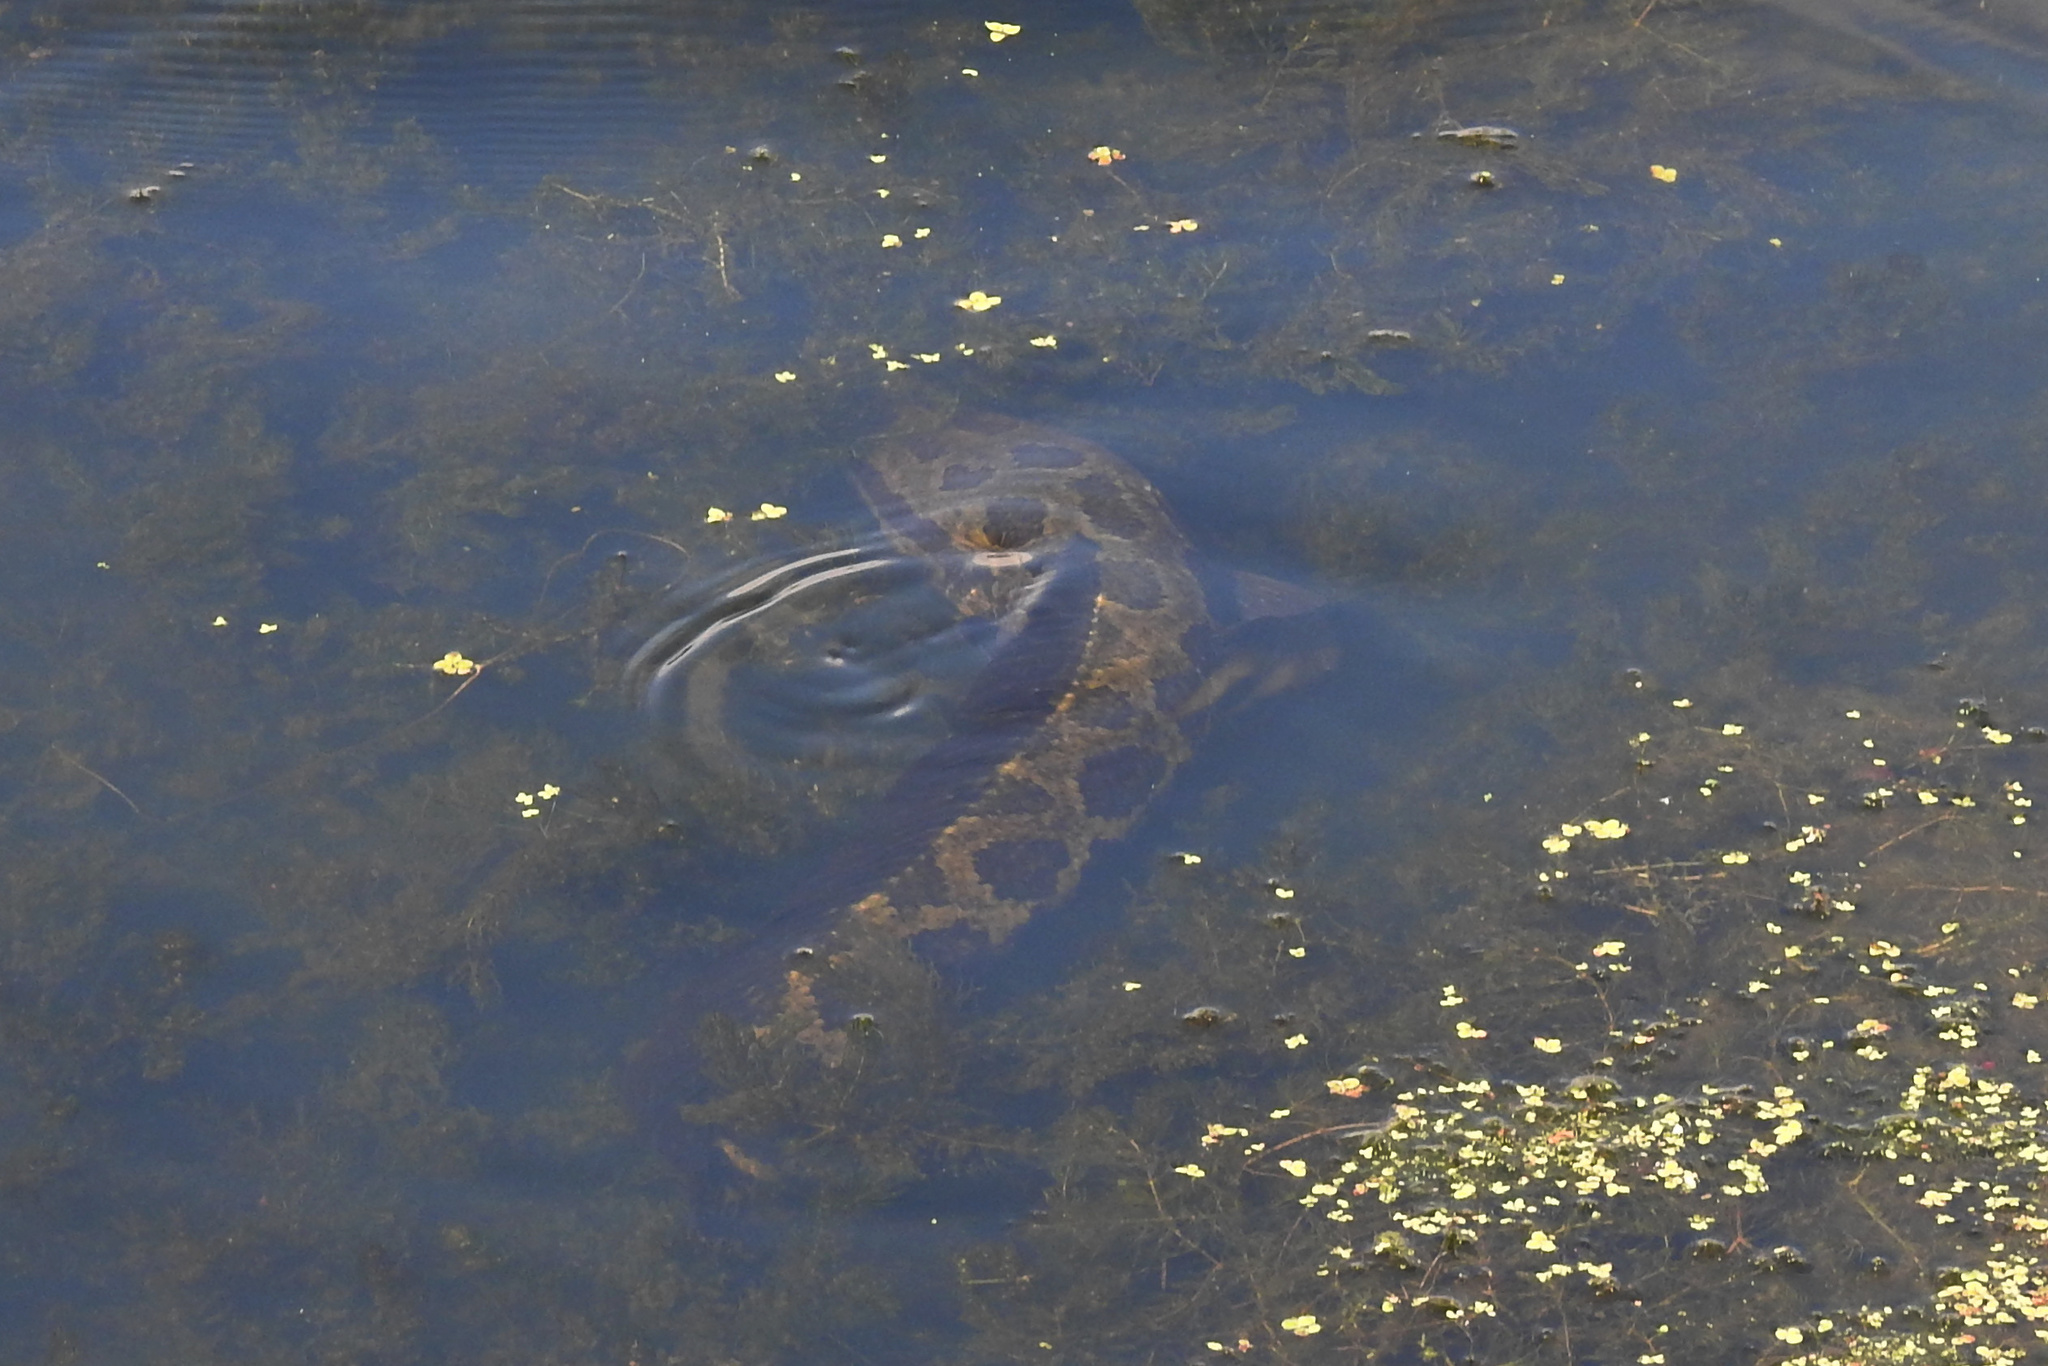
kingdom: Animalia
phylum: Chordata
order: Perciformes
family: Channidae
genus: Channa
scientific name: Channa argus
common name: Northern snakehead
